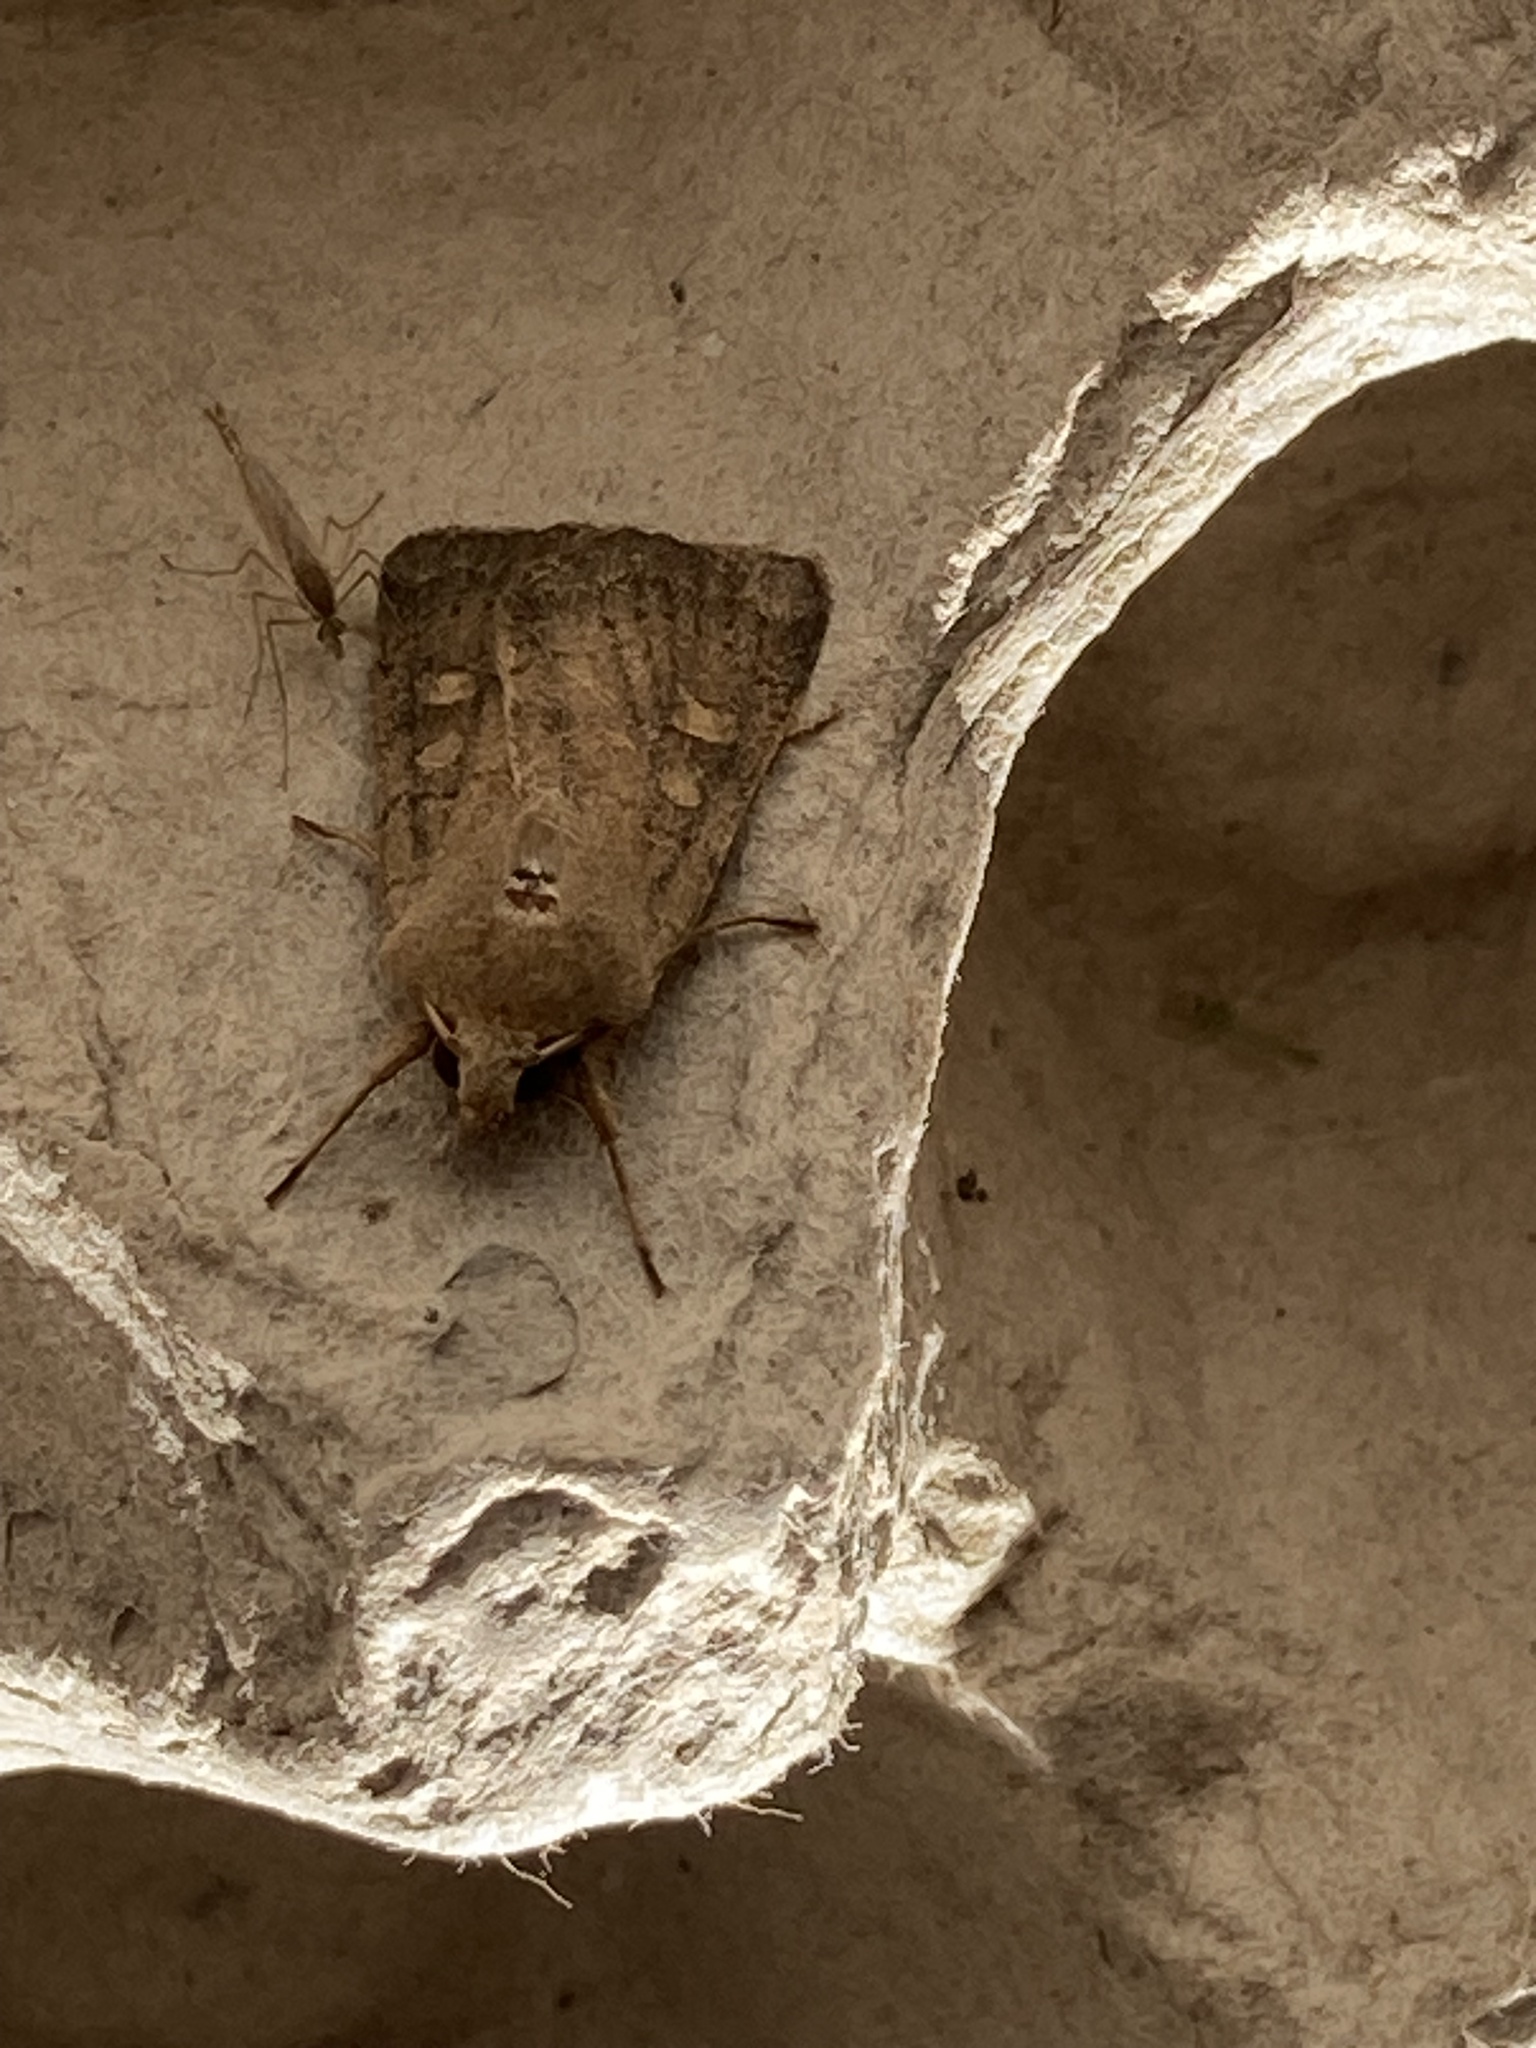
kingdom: Animalia
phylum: Arthropoda
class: Insecta
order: Lepidoptera
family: Noctuidae
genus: Xestia
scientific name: Xestia xanthographa
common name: Square-spot rustic
